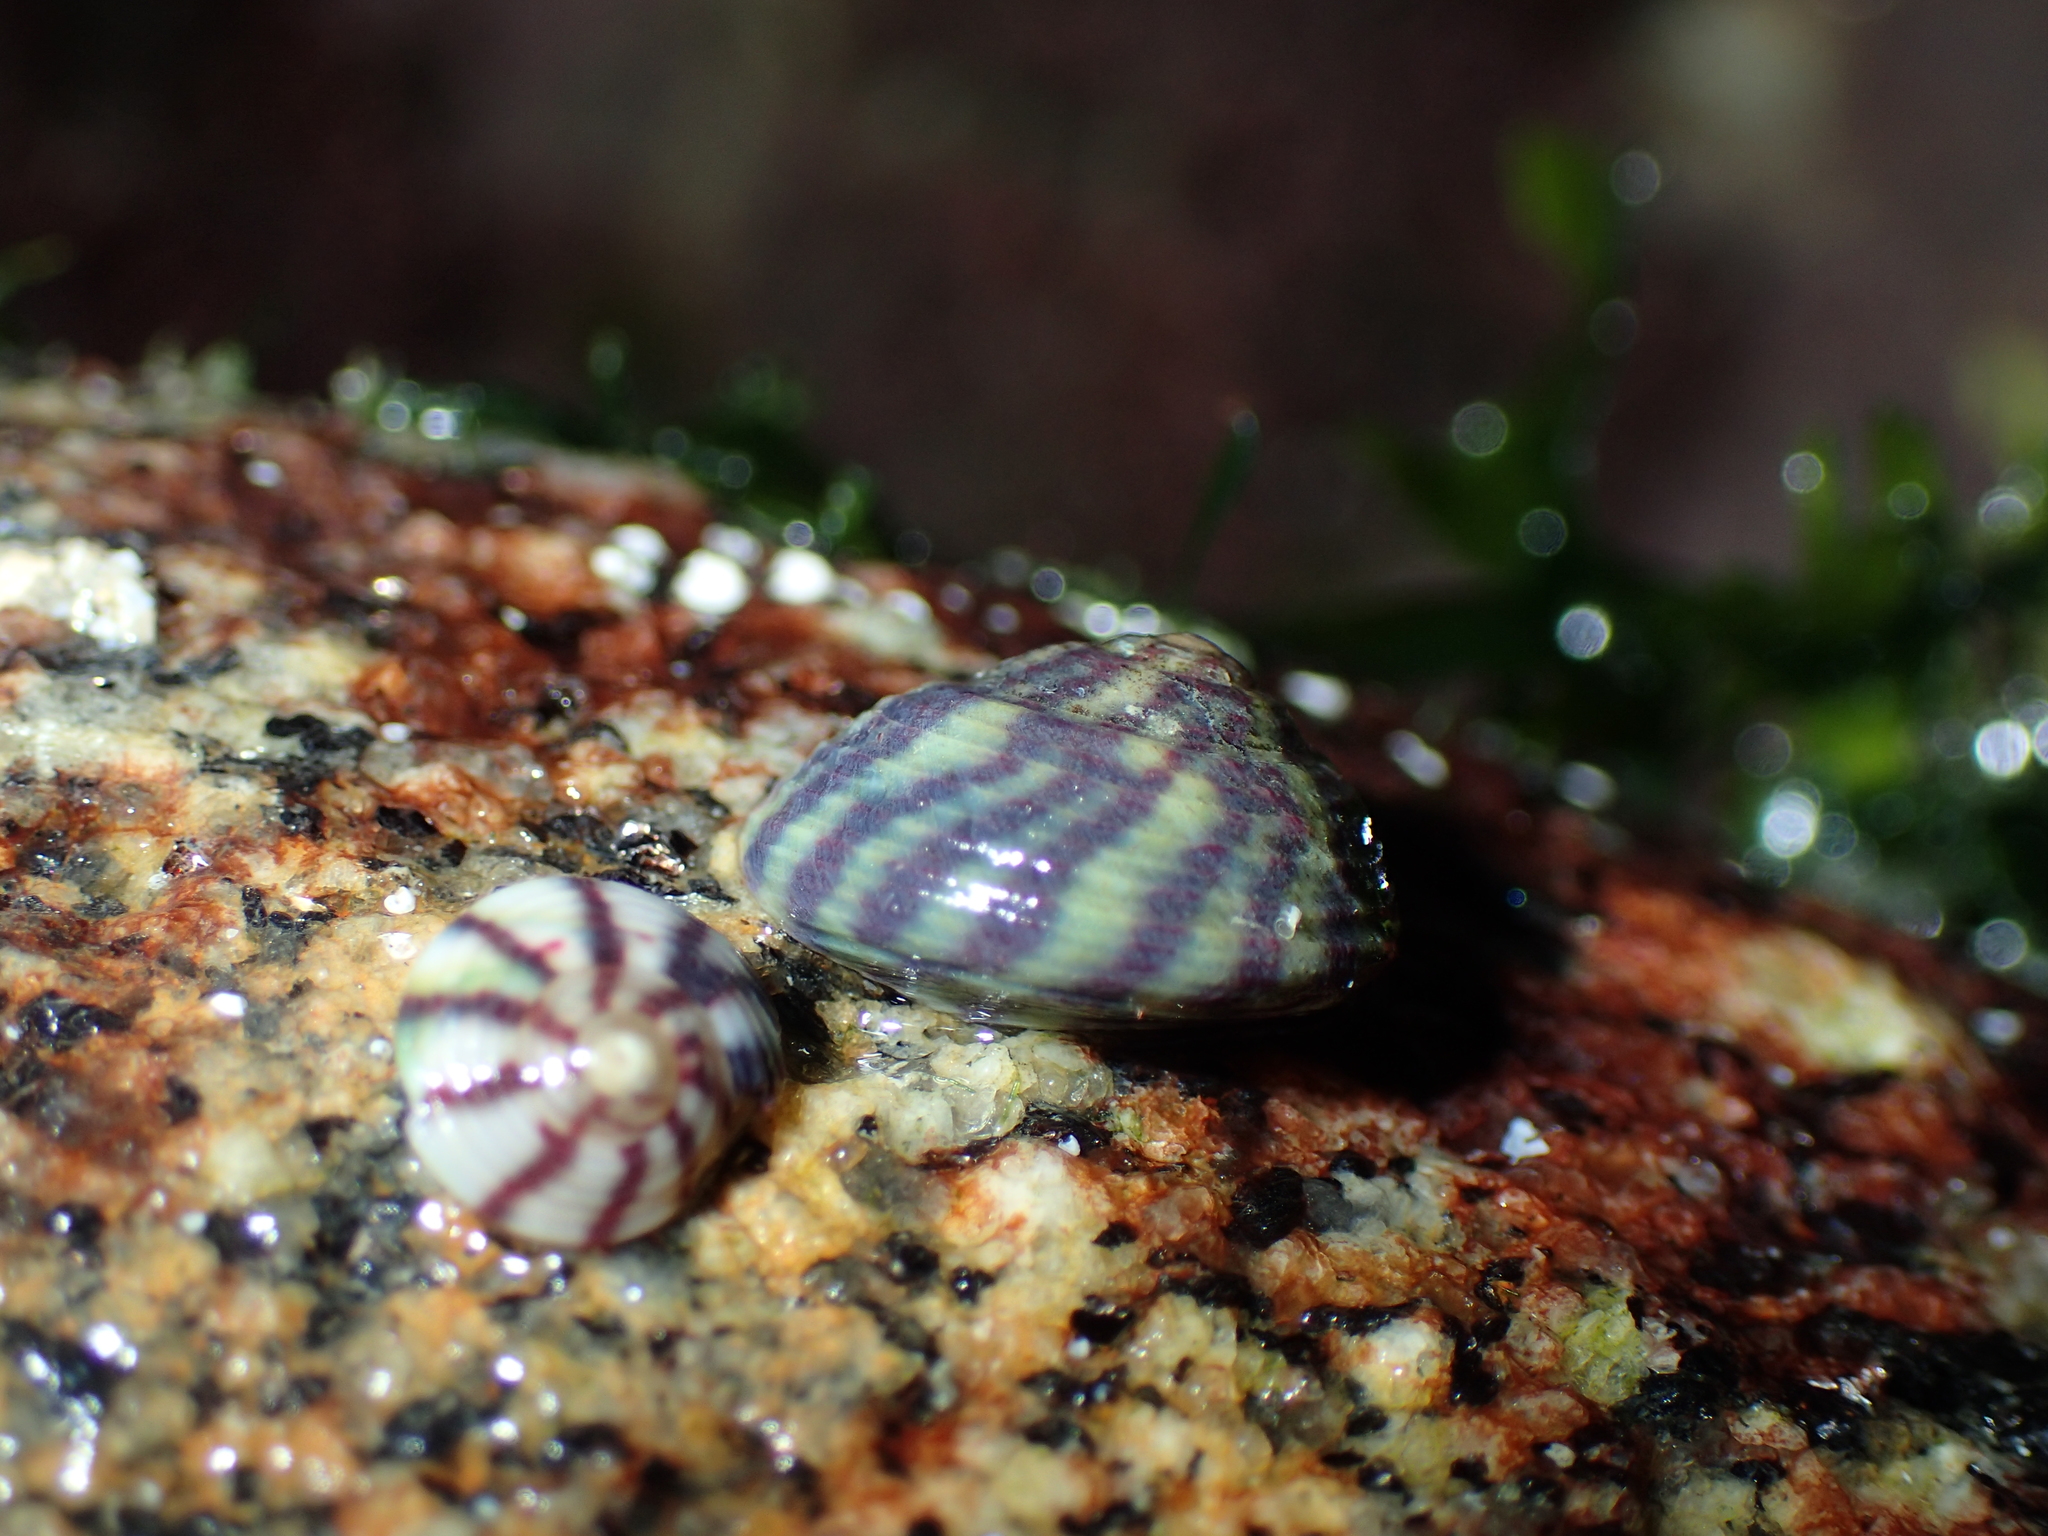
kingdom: Animalia
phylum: Mollusca
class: Gastropoda
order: Trochida
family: Trochidae
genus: Steromphala
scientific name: Steromphala umbilicalis
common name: Flat top shell
